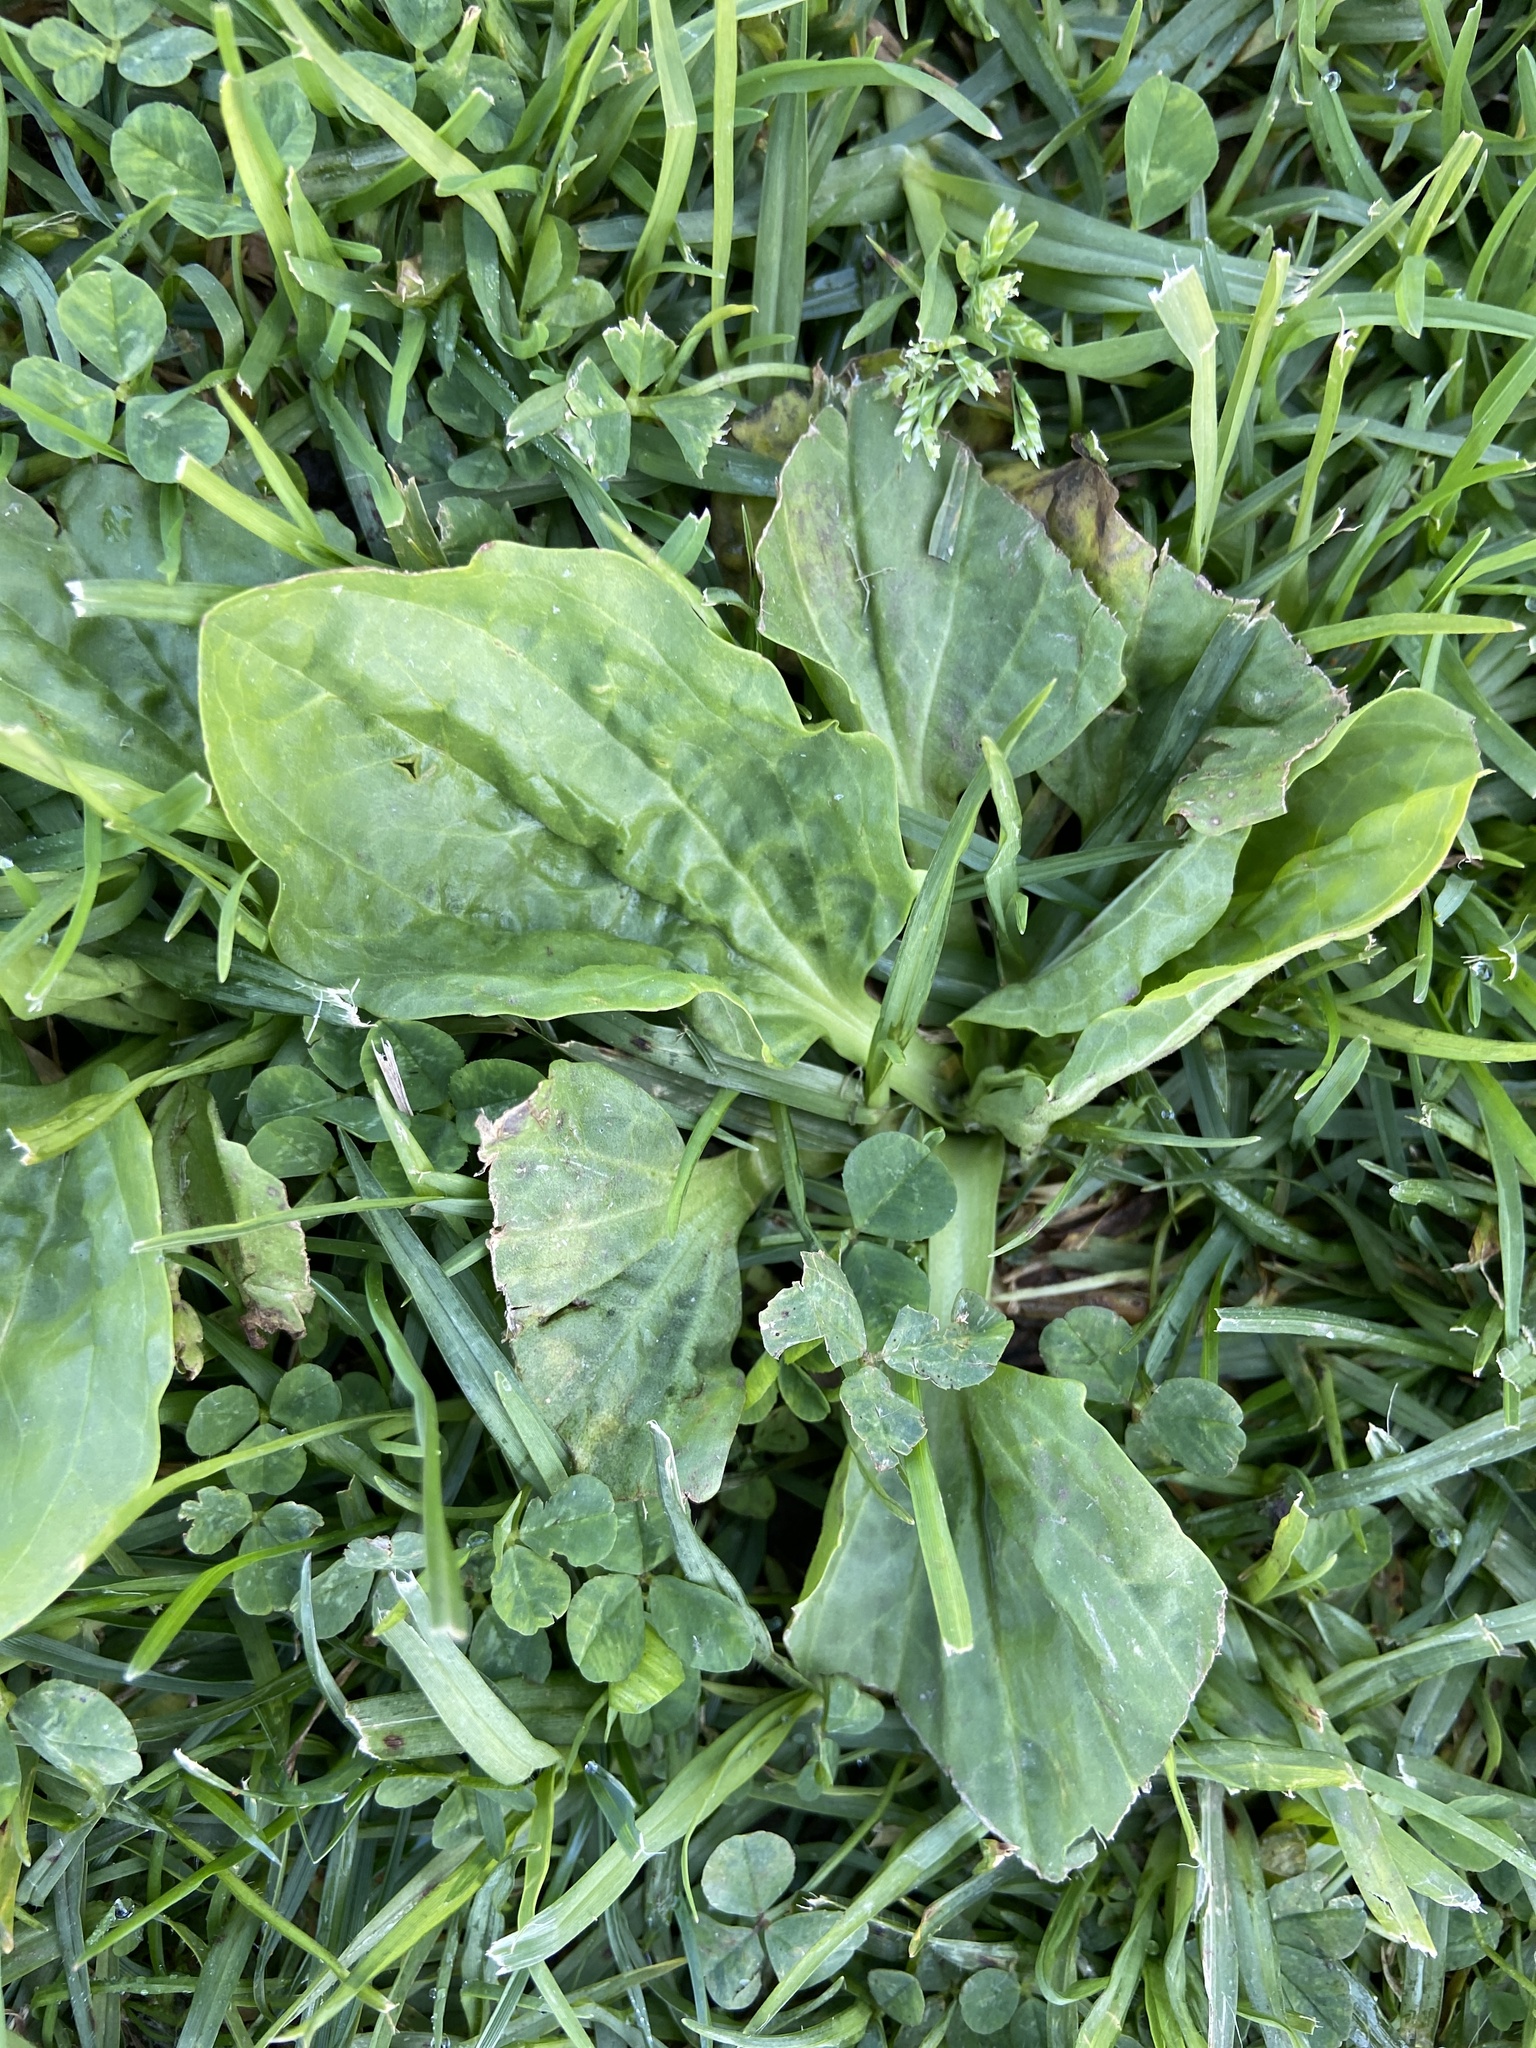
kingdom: Plantae
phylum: Tracheophyta
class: Magnoliopsida
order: Lamiales
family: Plantaginaceae
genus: Plantago
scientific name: Plantago major
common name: Common plantain
